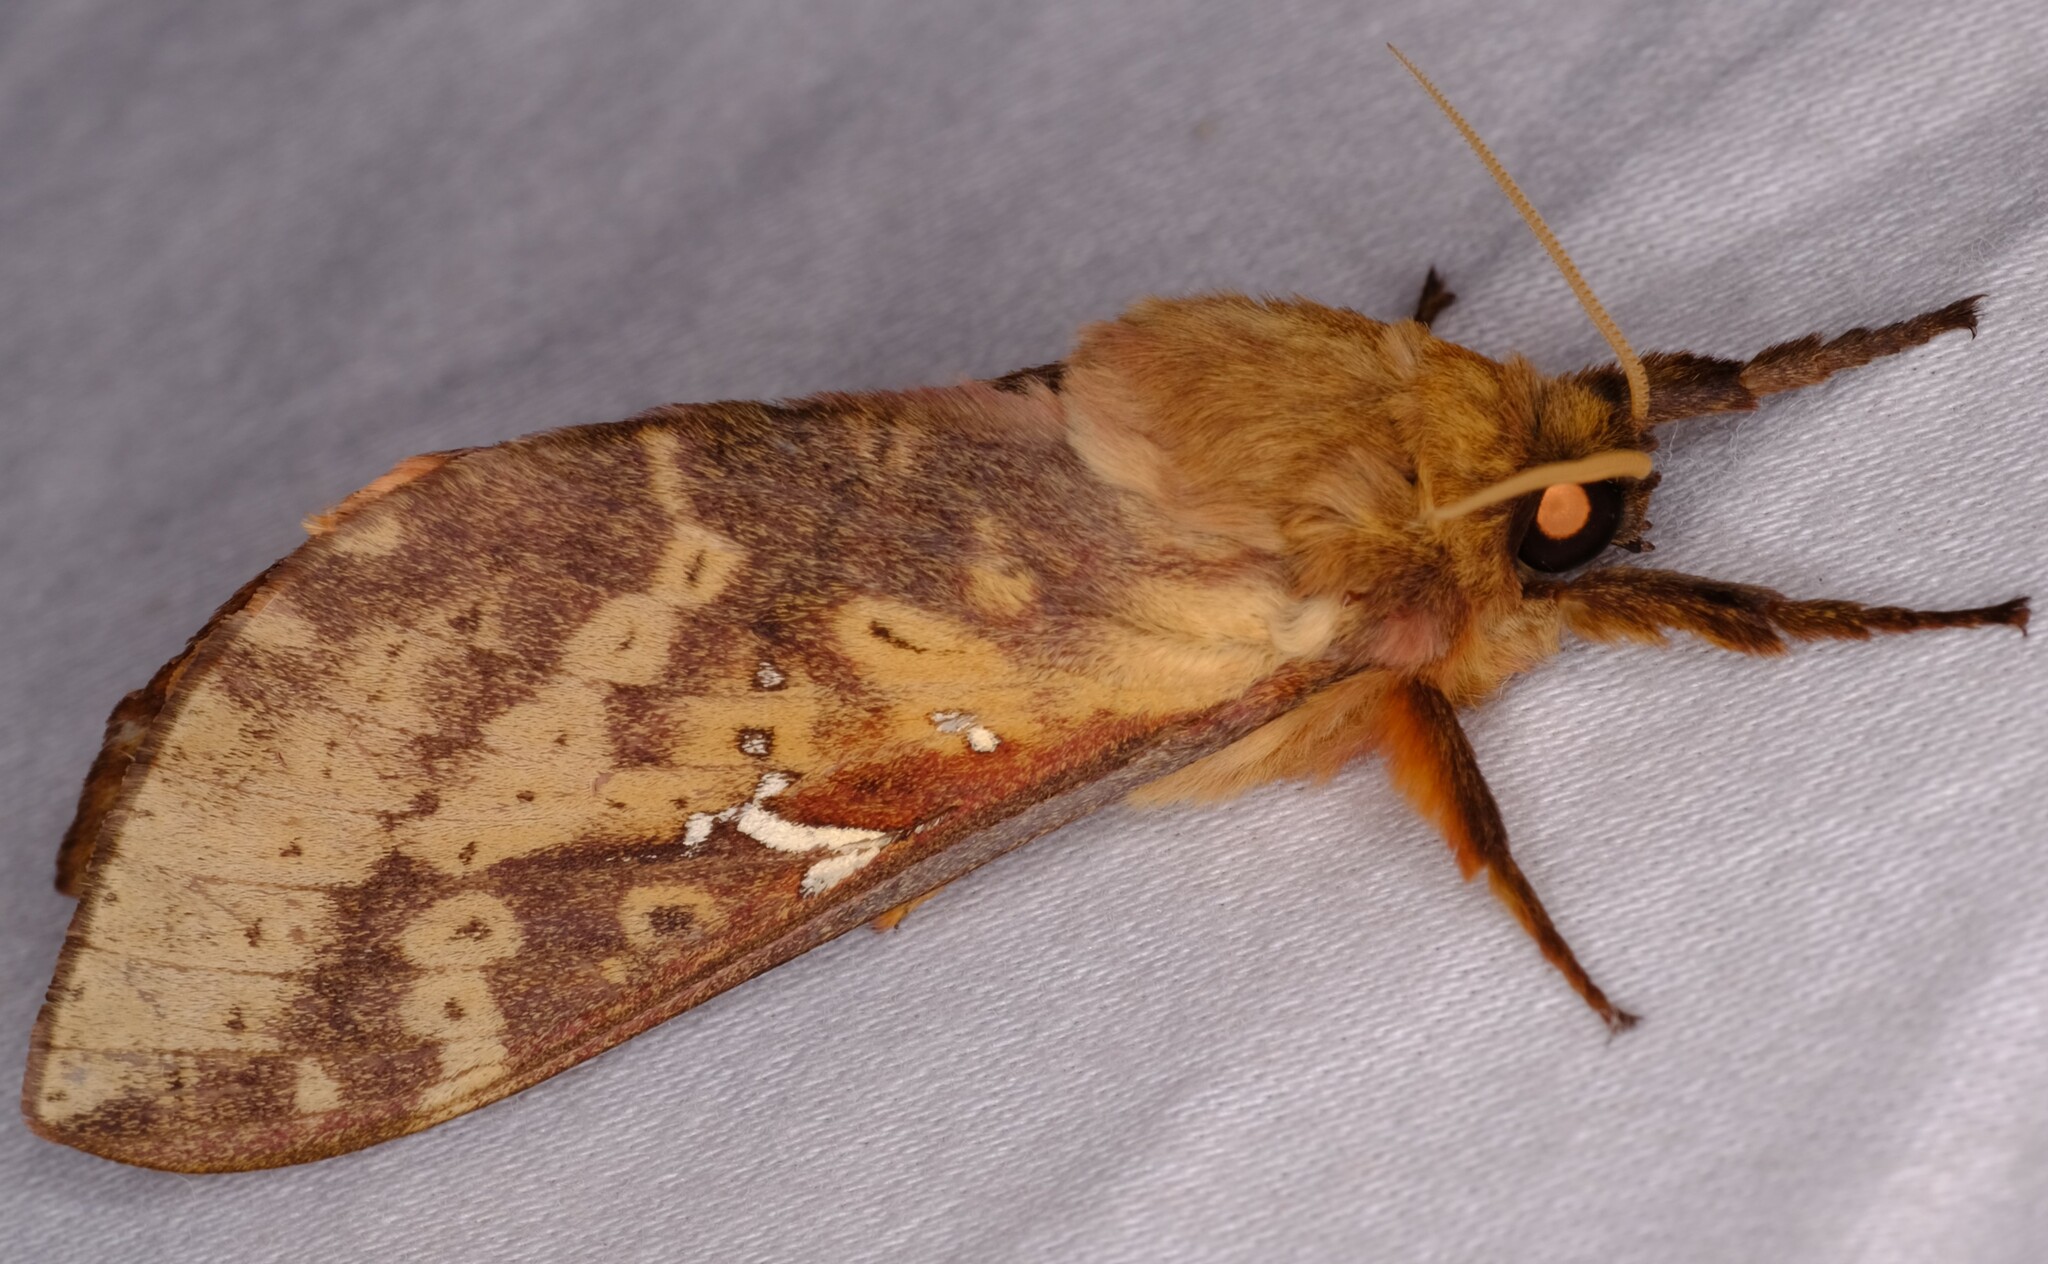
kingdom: Animalia
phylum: Arthropoda
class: Insecta
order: Lepidoptera
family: Hepialidae
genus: Oxycanus
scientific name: Oxycanus sirpus
